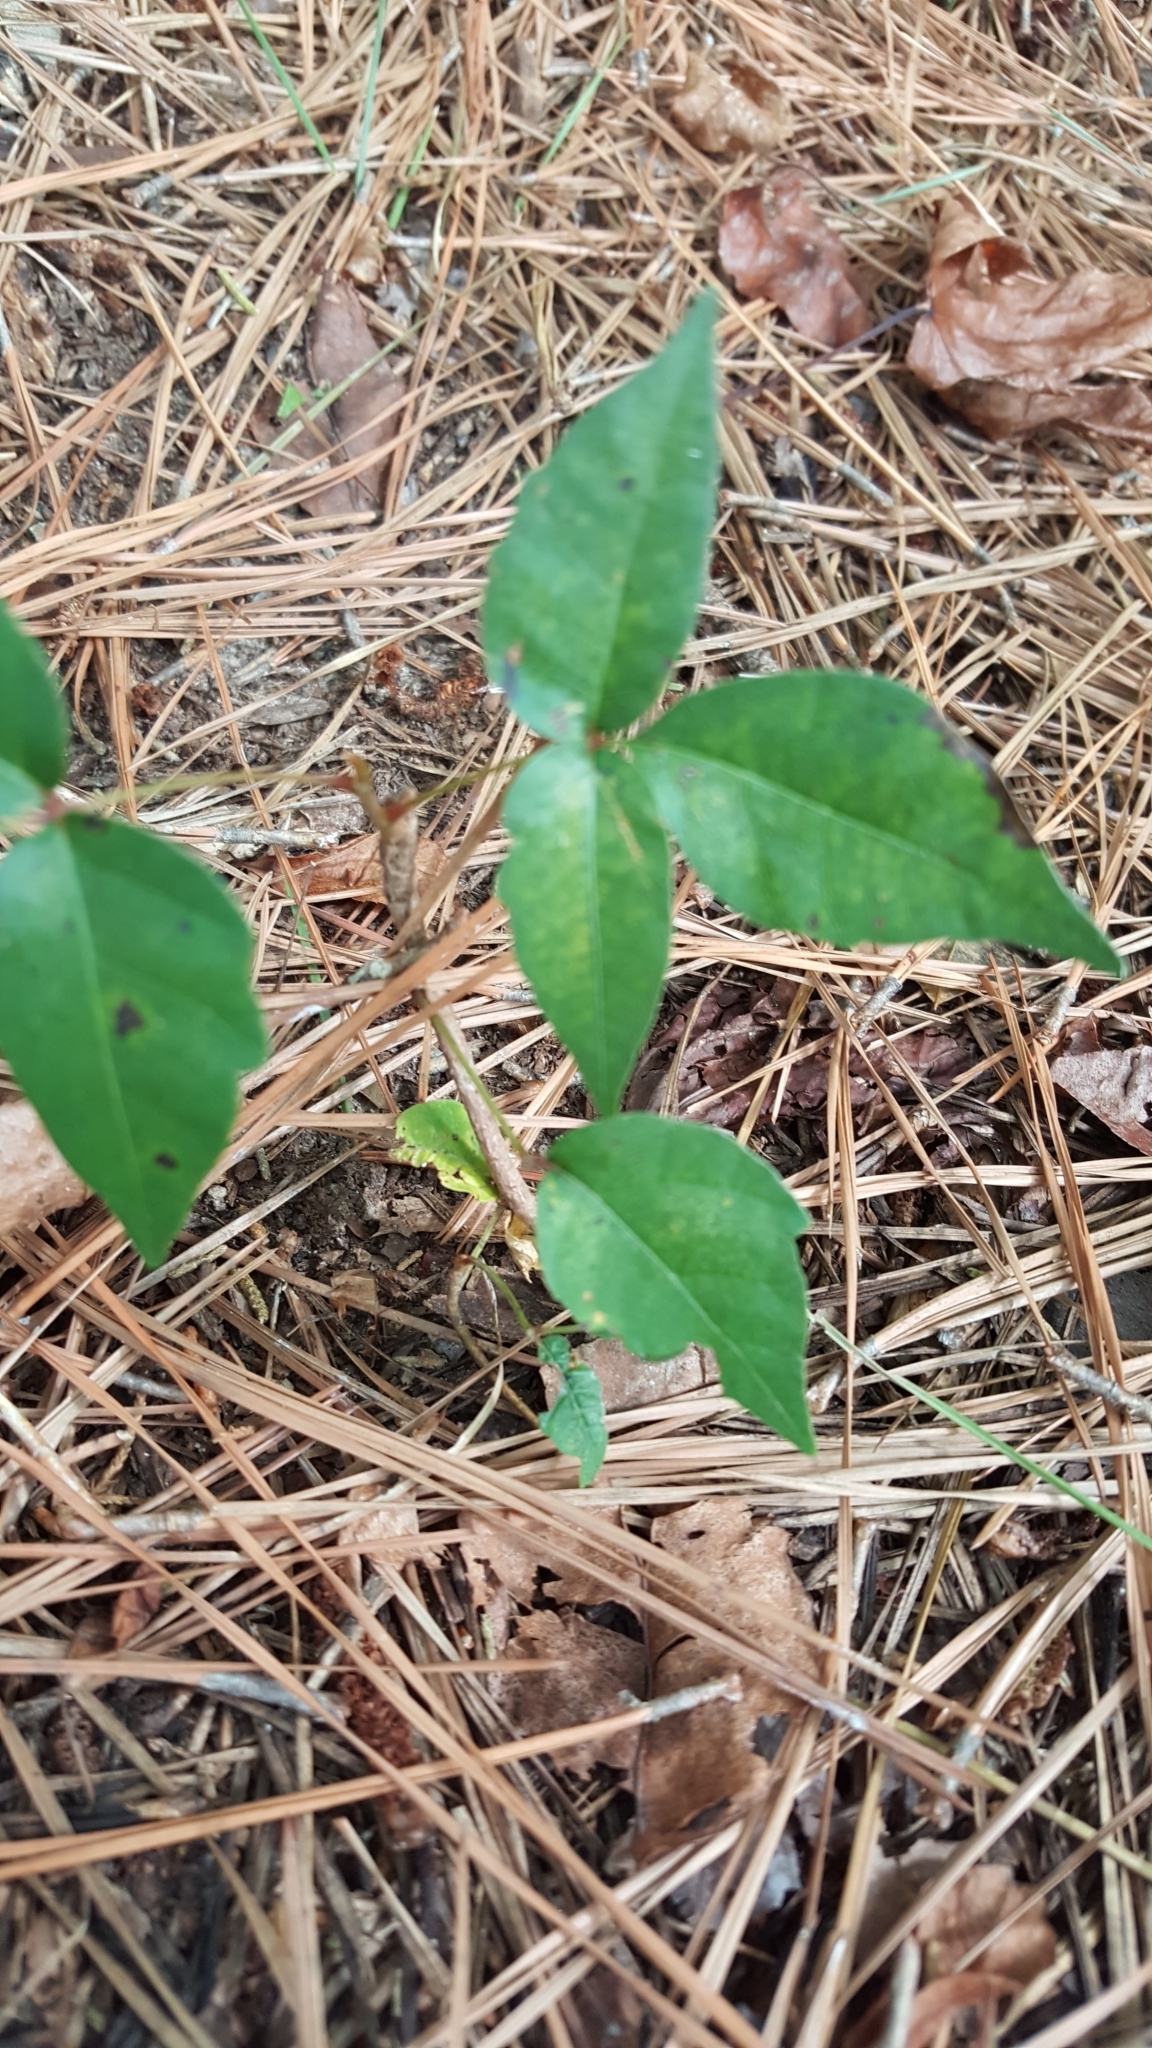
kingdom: Plantae
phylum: Tracheophyta
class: Magnoliopsida
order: Sapindales
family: Anacardiaceae
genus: Toxicodendron
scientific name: Toxicodendron radicans
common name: Poison ivy
